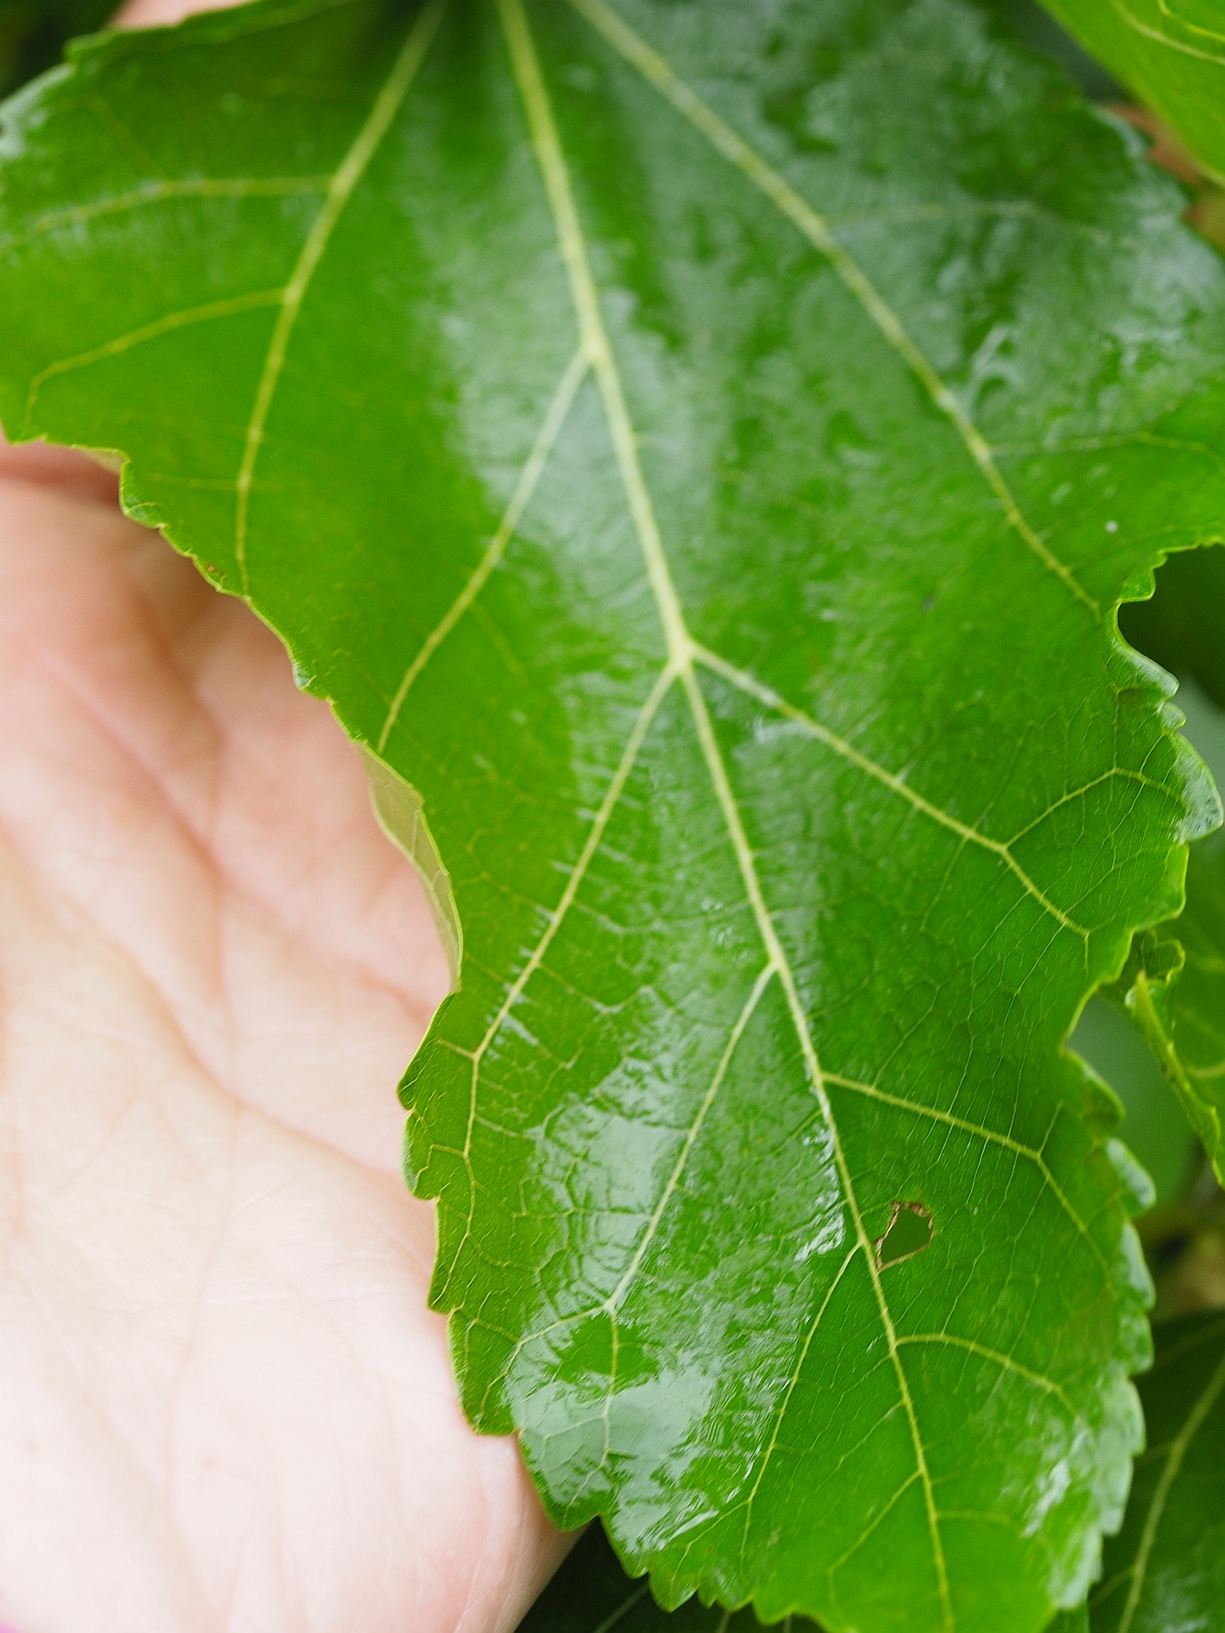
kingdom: Plantae
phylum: Tracheophyta
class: Magnoliopsida
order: Rosales
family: Moraceae
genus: Morus
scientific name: Morus alba
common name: White mulberry
